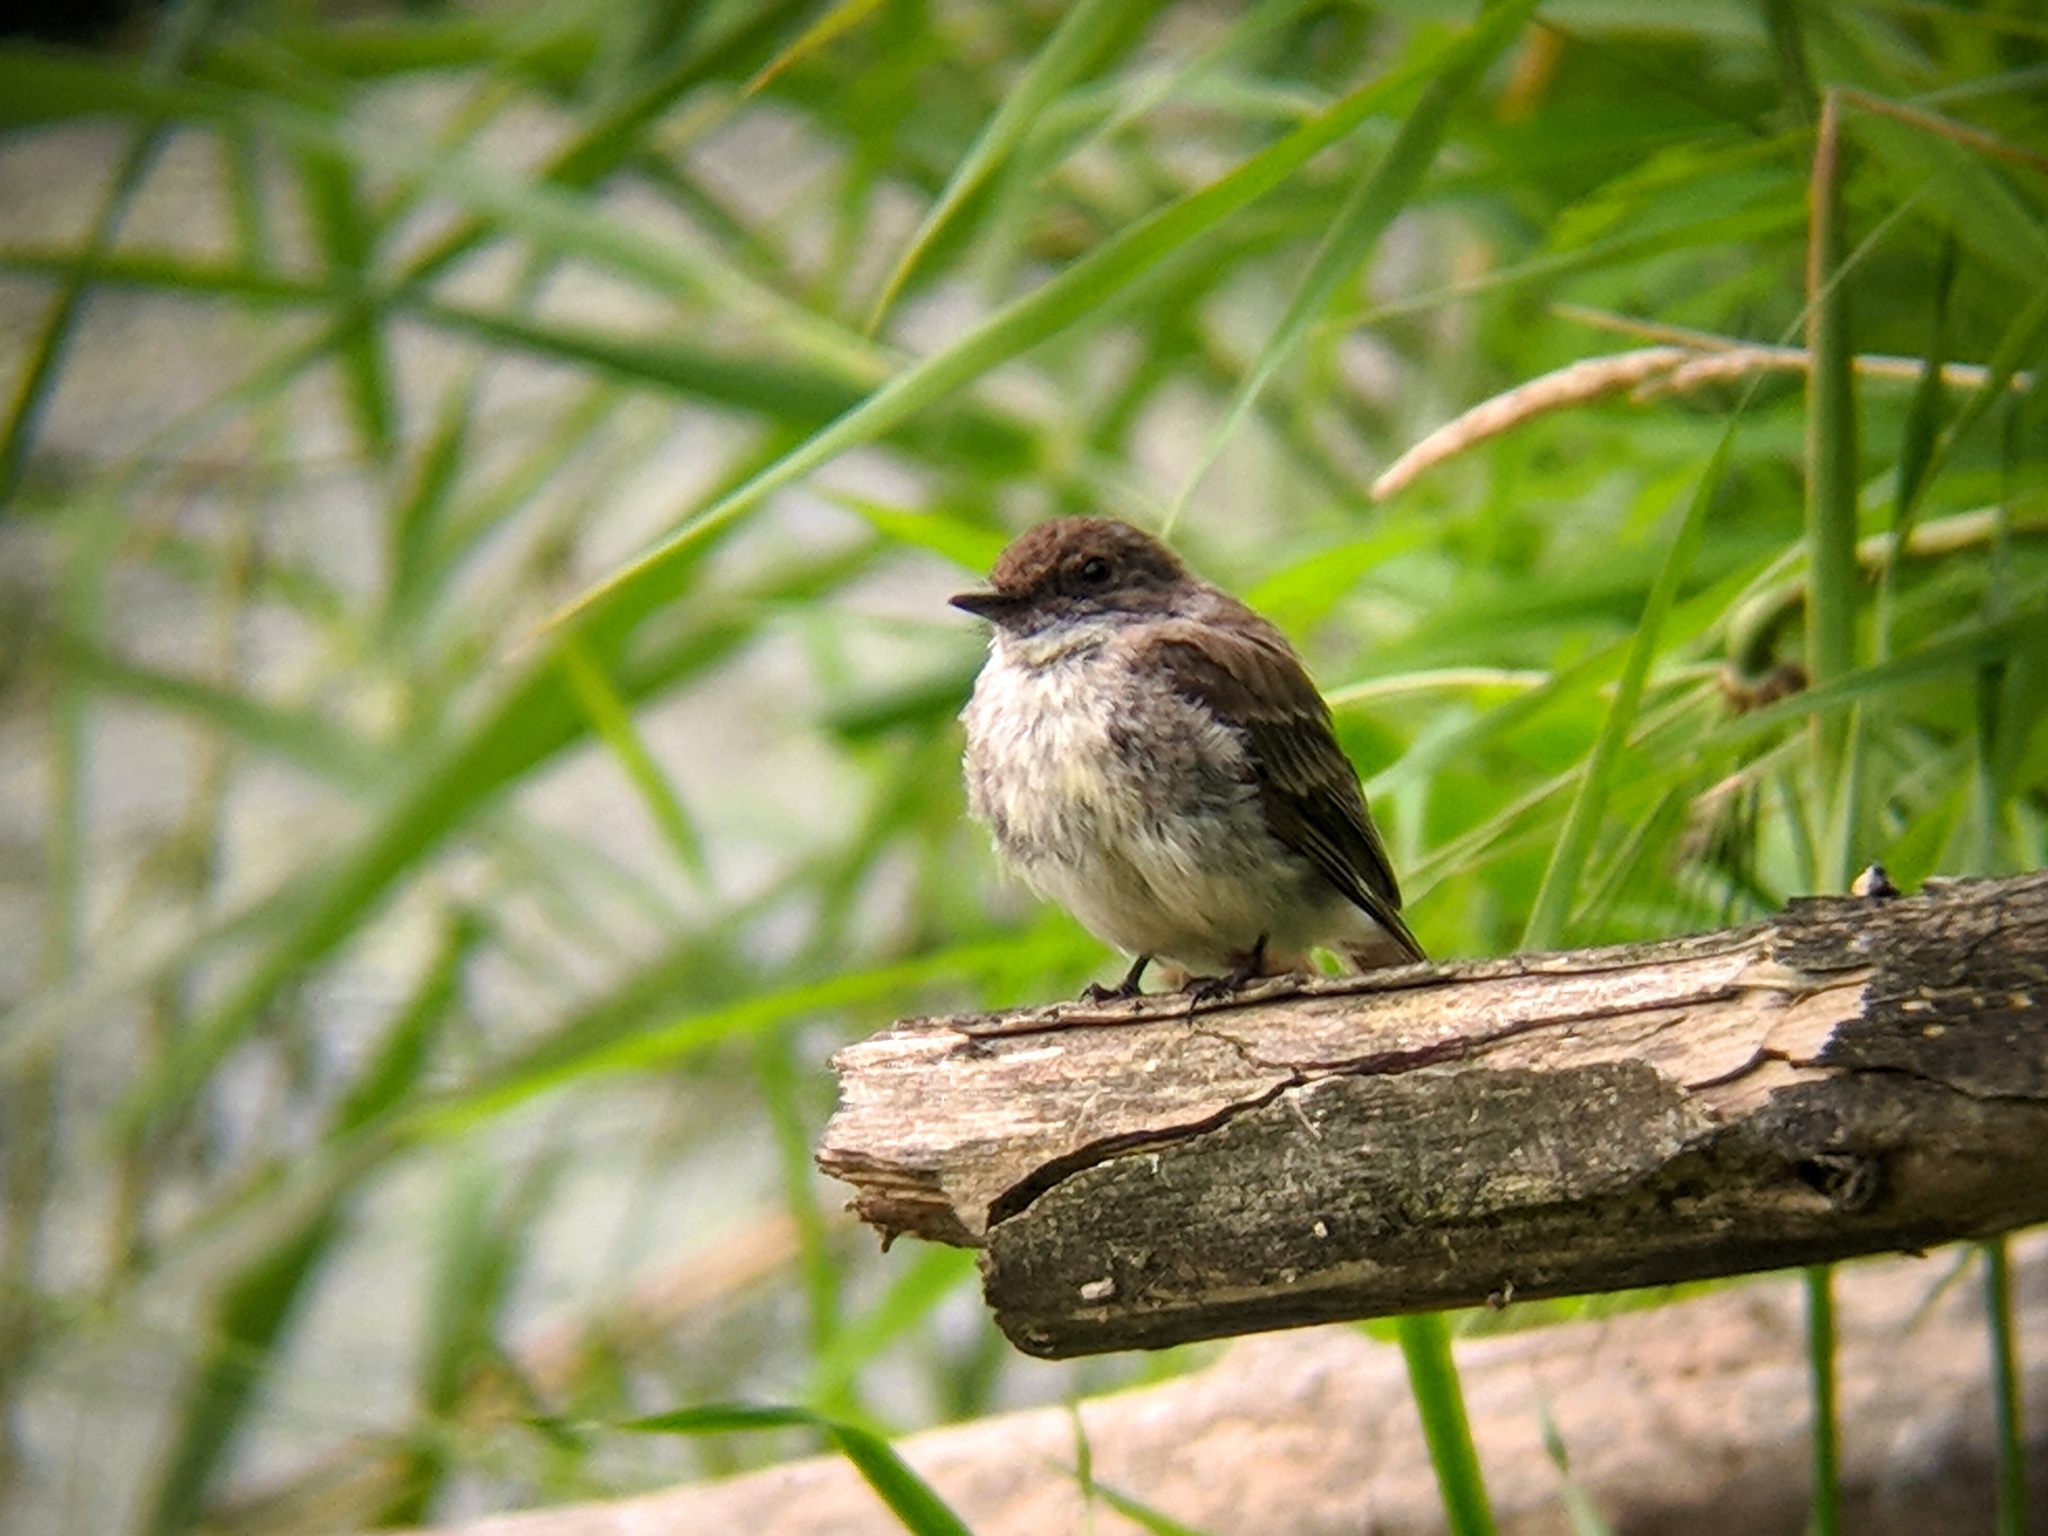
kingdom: Animalia
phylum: Chordata
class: Aves
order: Passeriformes
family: Tyrannidae
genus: Sayornis
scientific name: Sayornis phoebe
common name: Eastern phoebe
